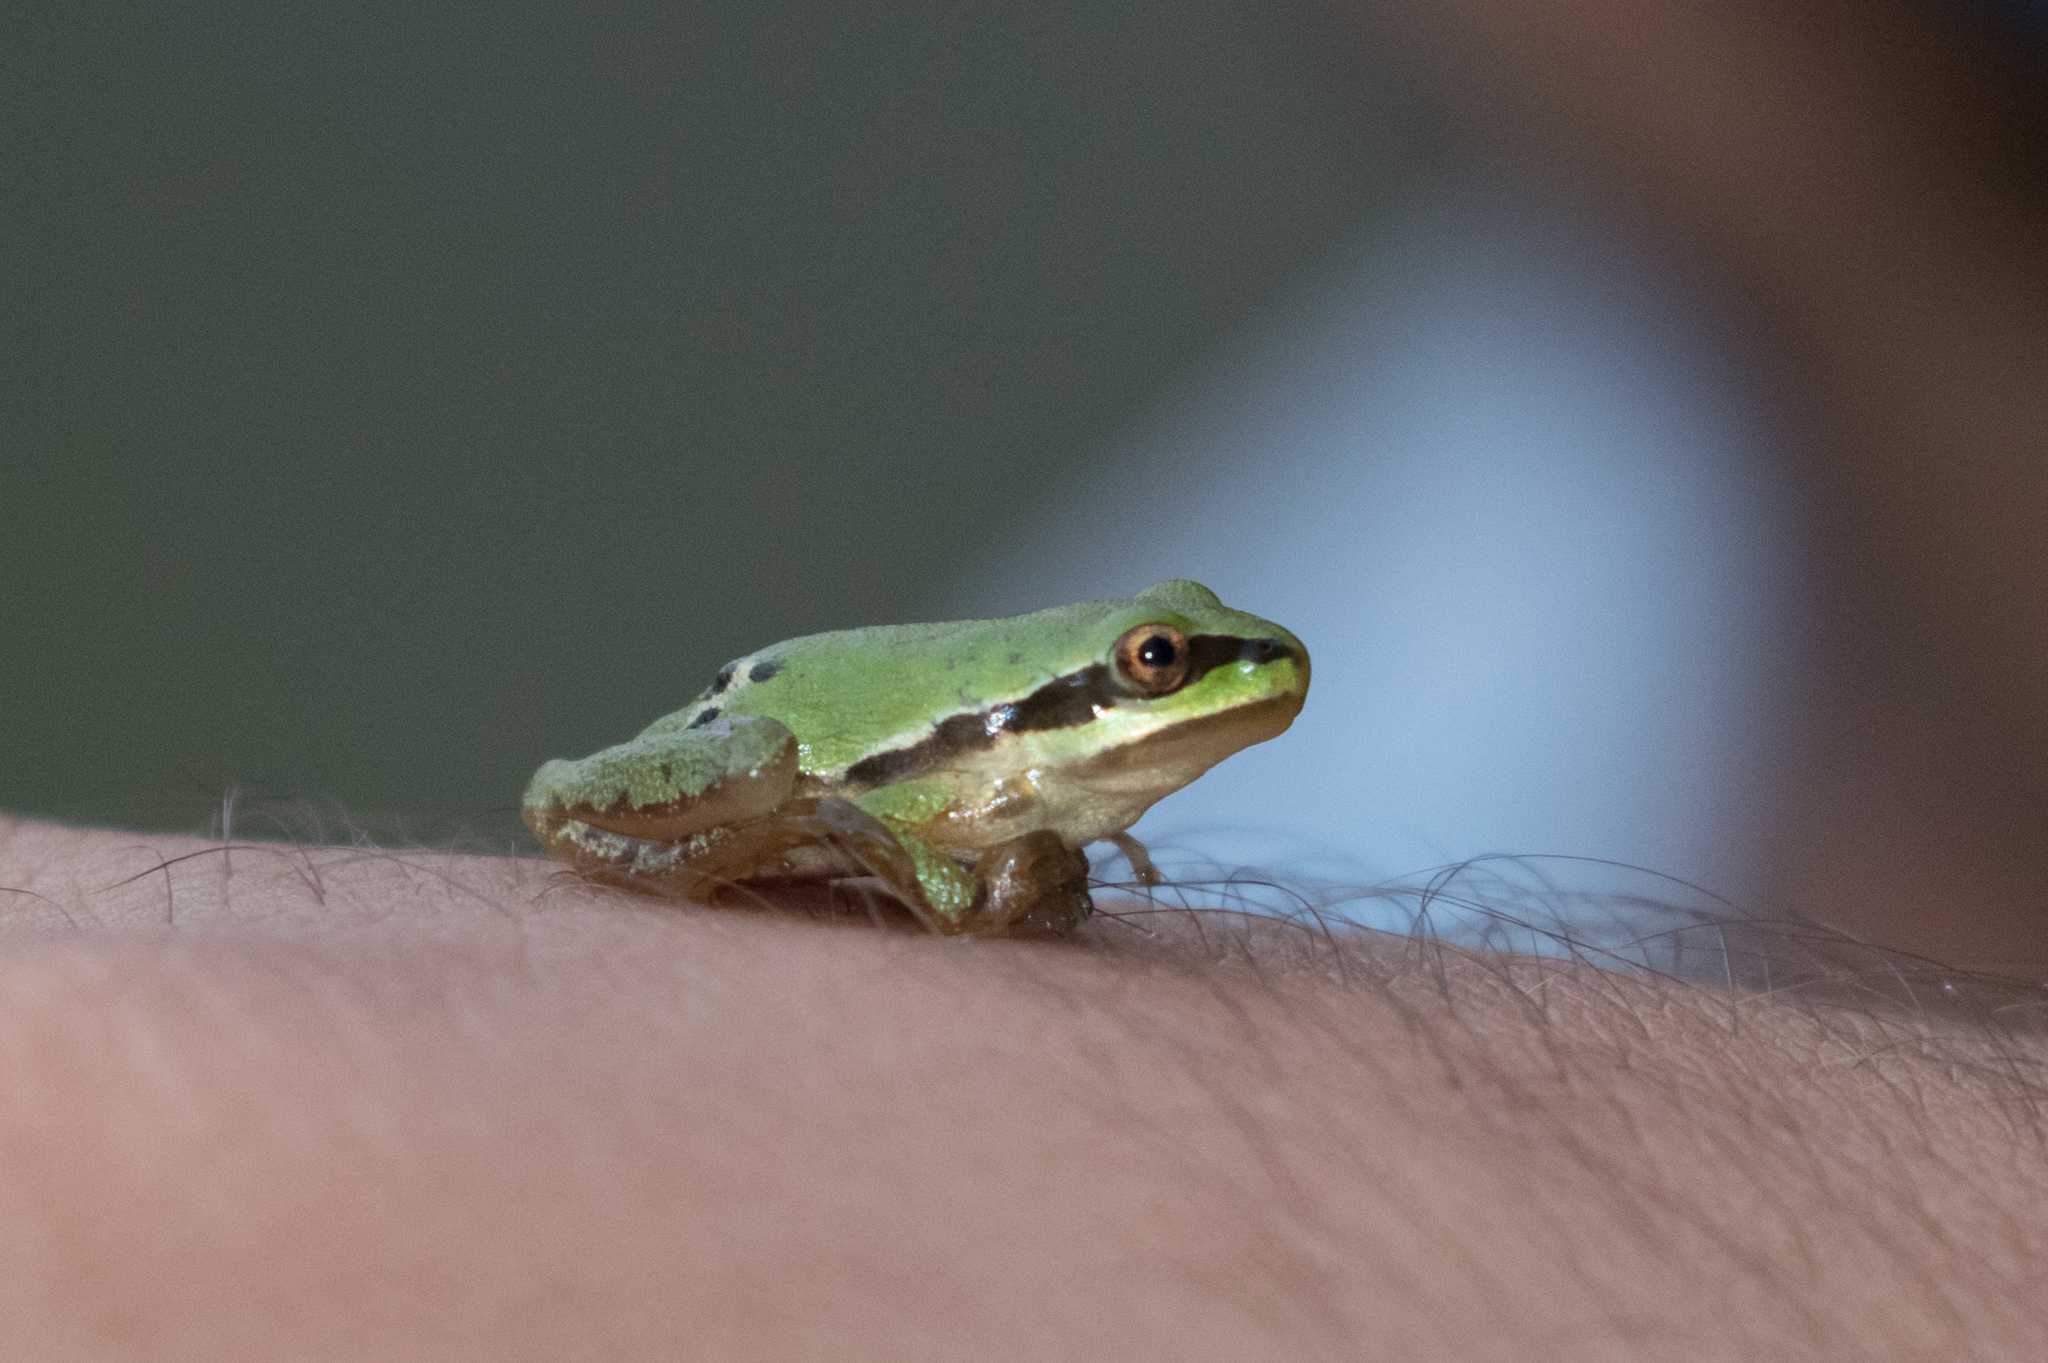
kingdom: Animalia
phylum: Chordata
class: Amphibia
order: Anura
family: Hylidae
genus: Dryophytes
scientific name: Dryophytes eximius
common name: Mountain treefrog
